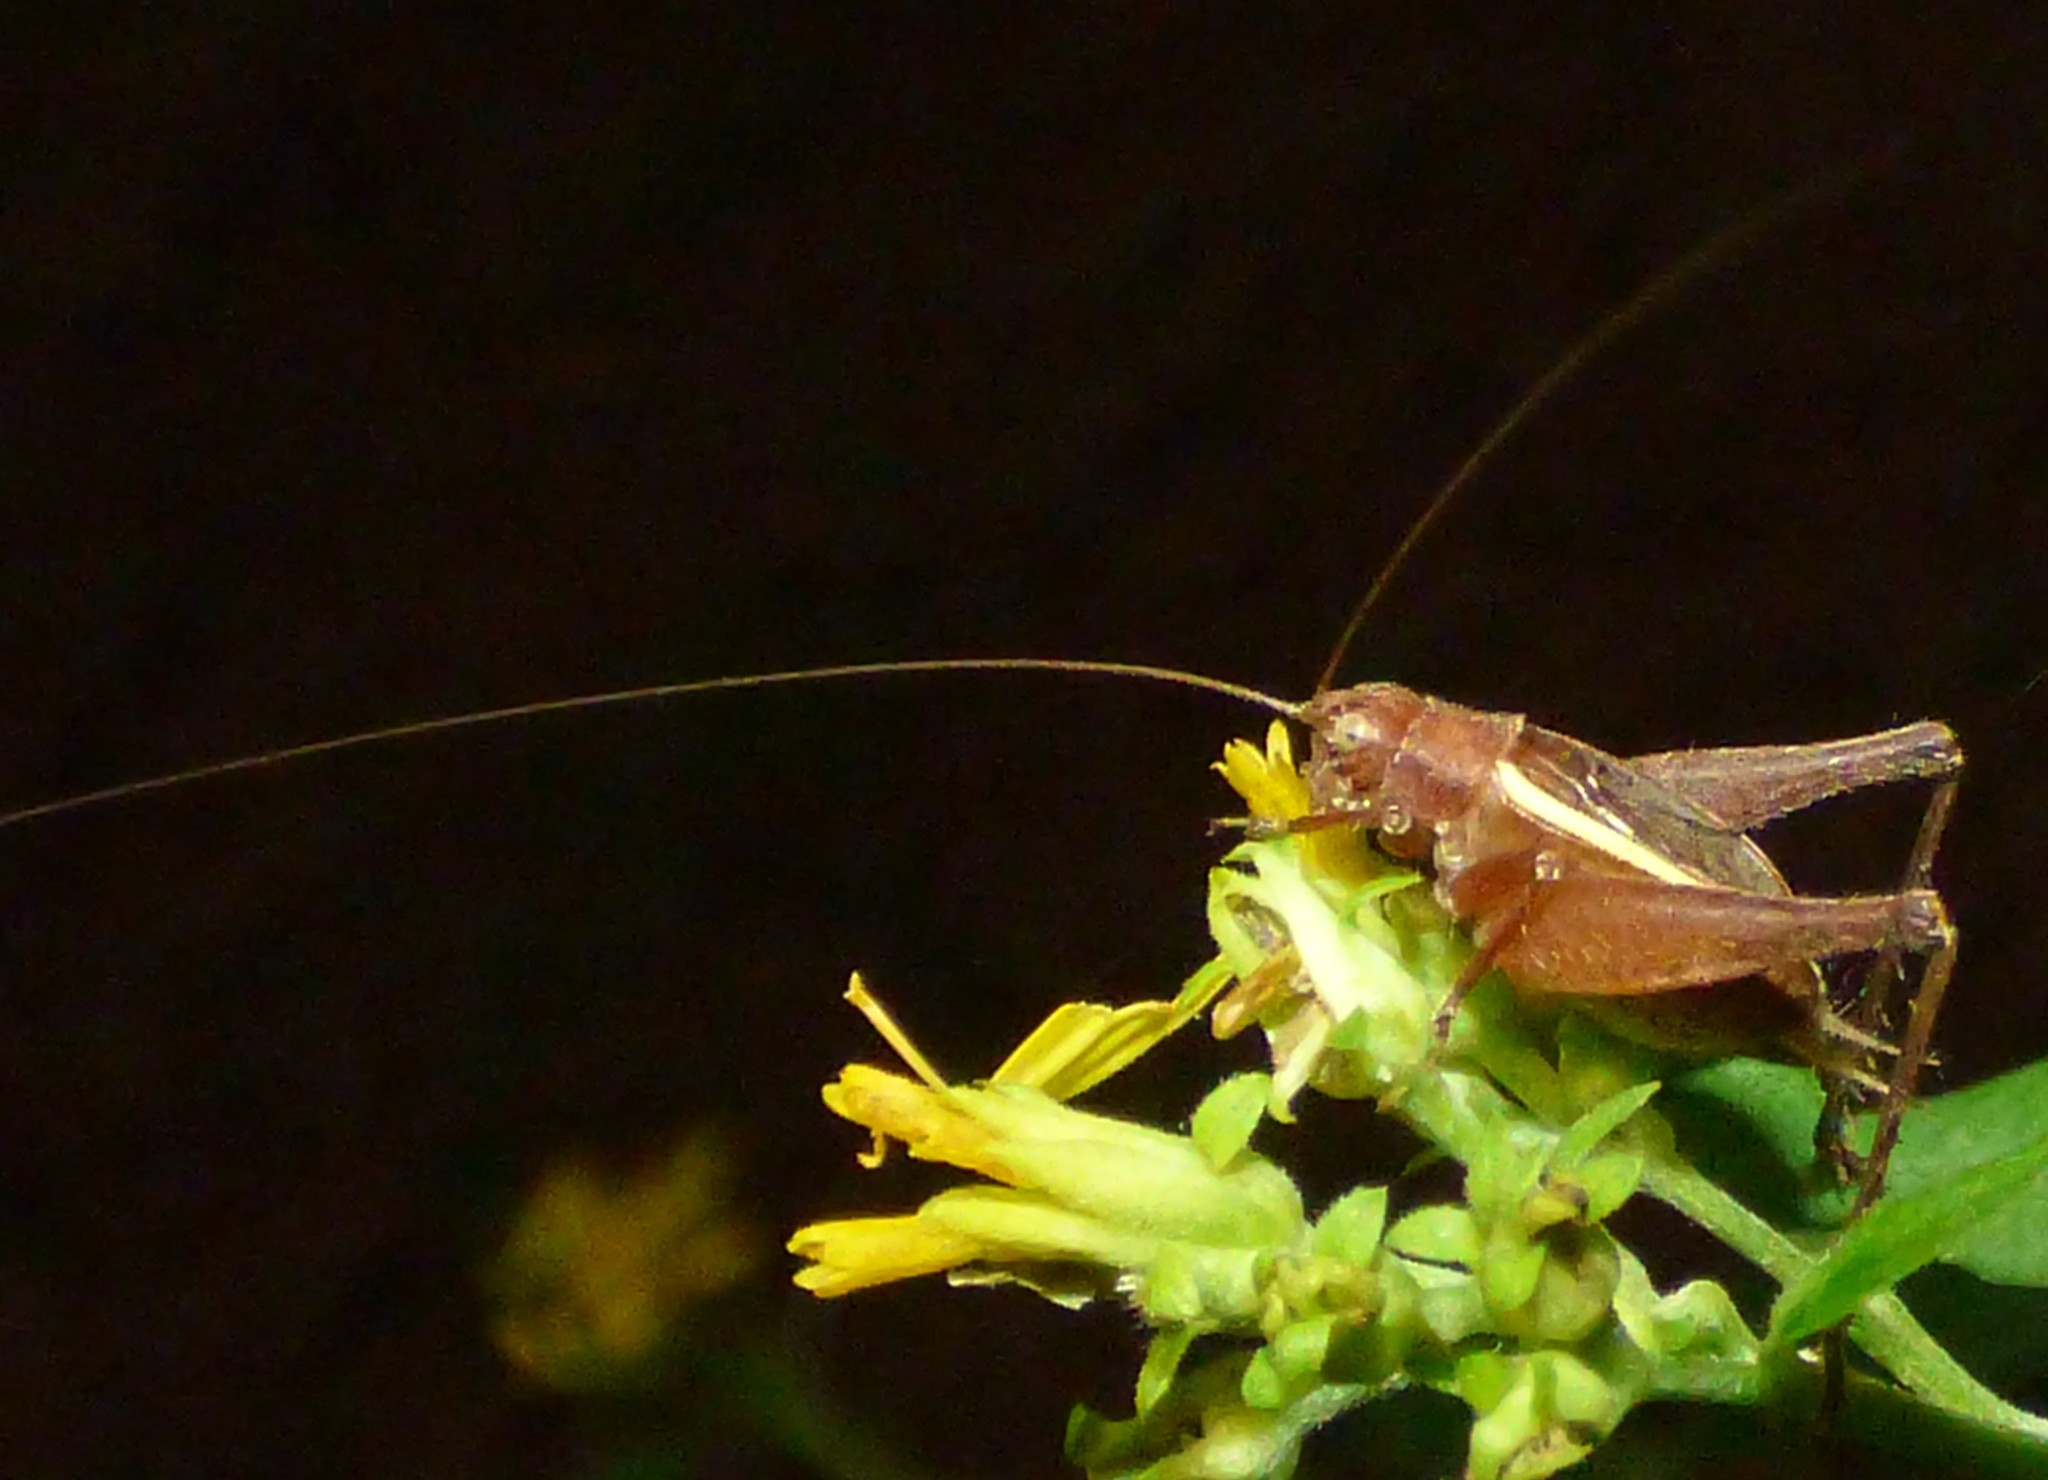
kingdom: Animalia
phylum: Arthropoda
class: Insecta
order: Orthoptera
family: Gryllidae
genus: Hapithus
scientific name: Hapithus agitator
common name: Restless bush cricket
